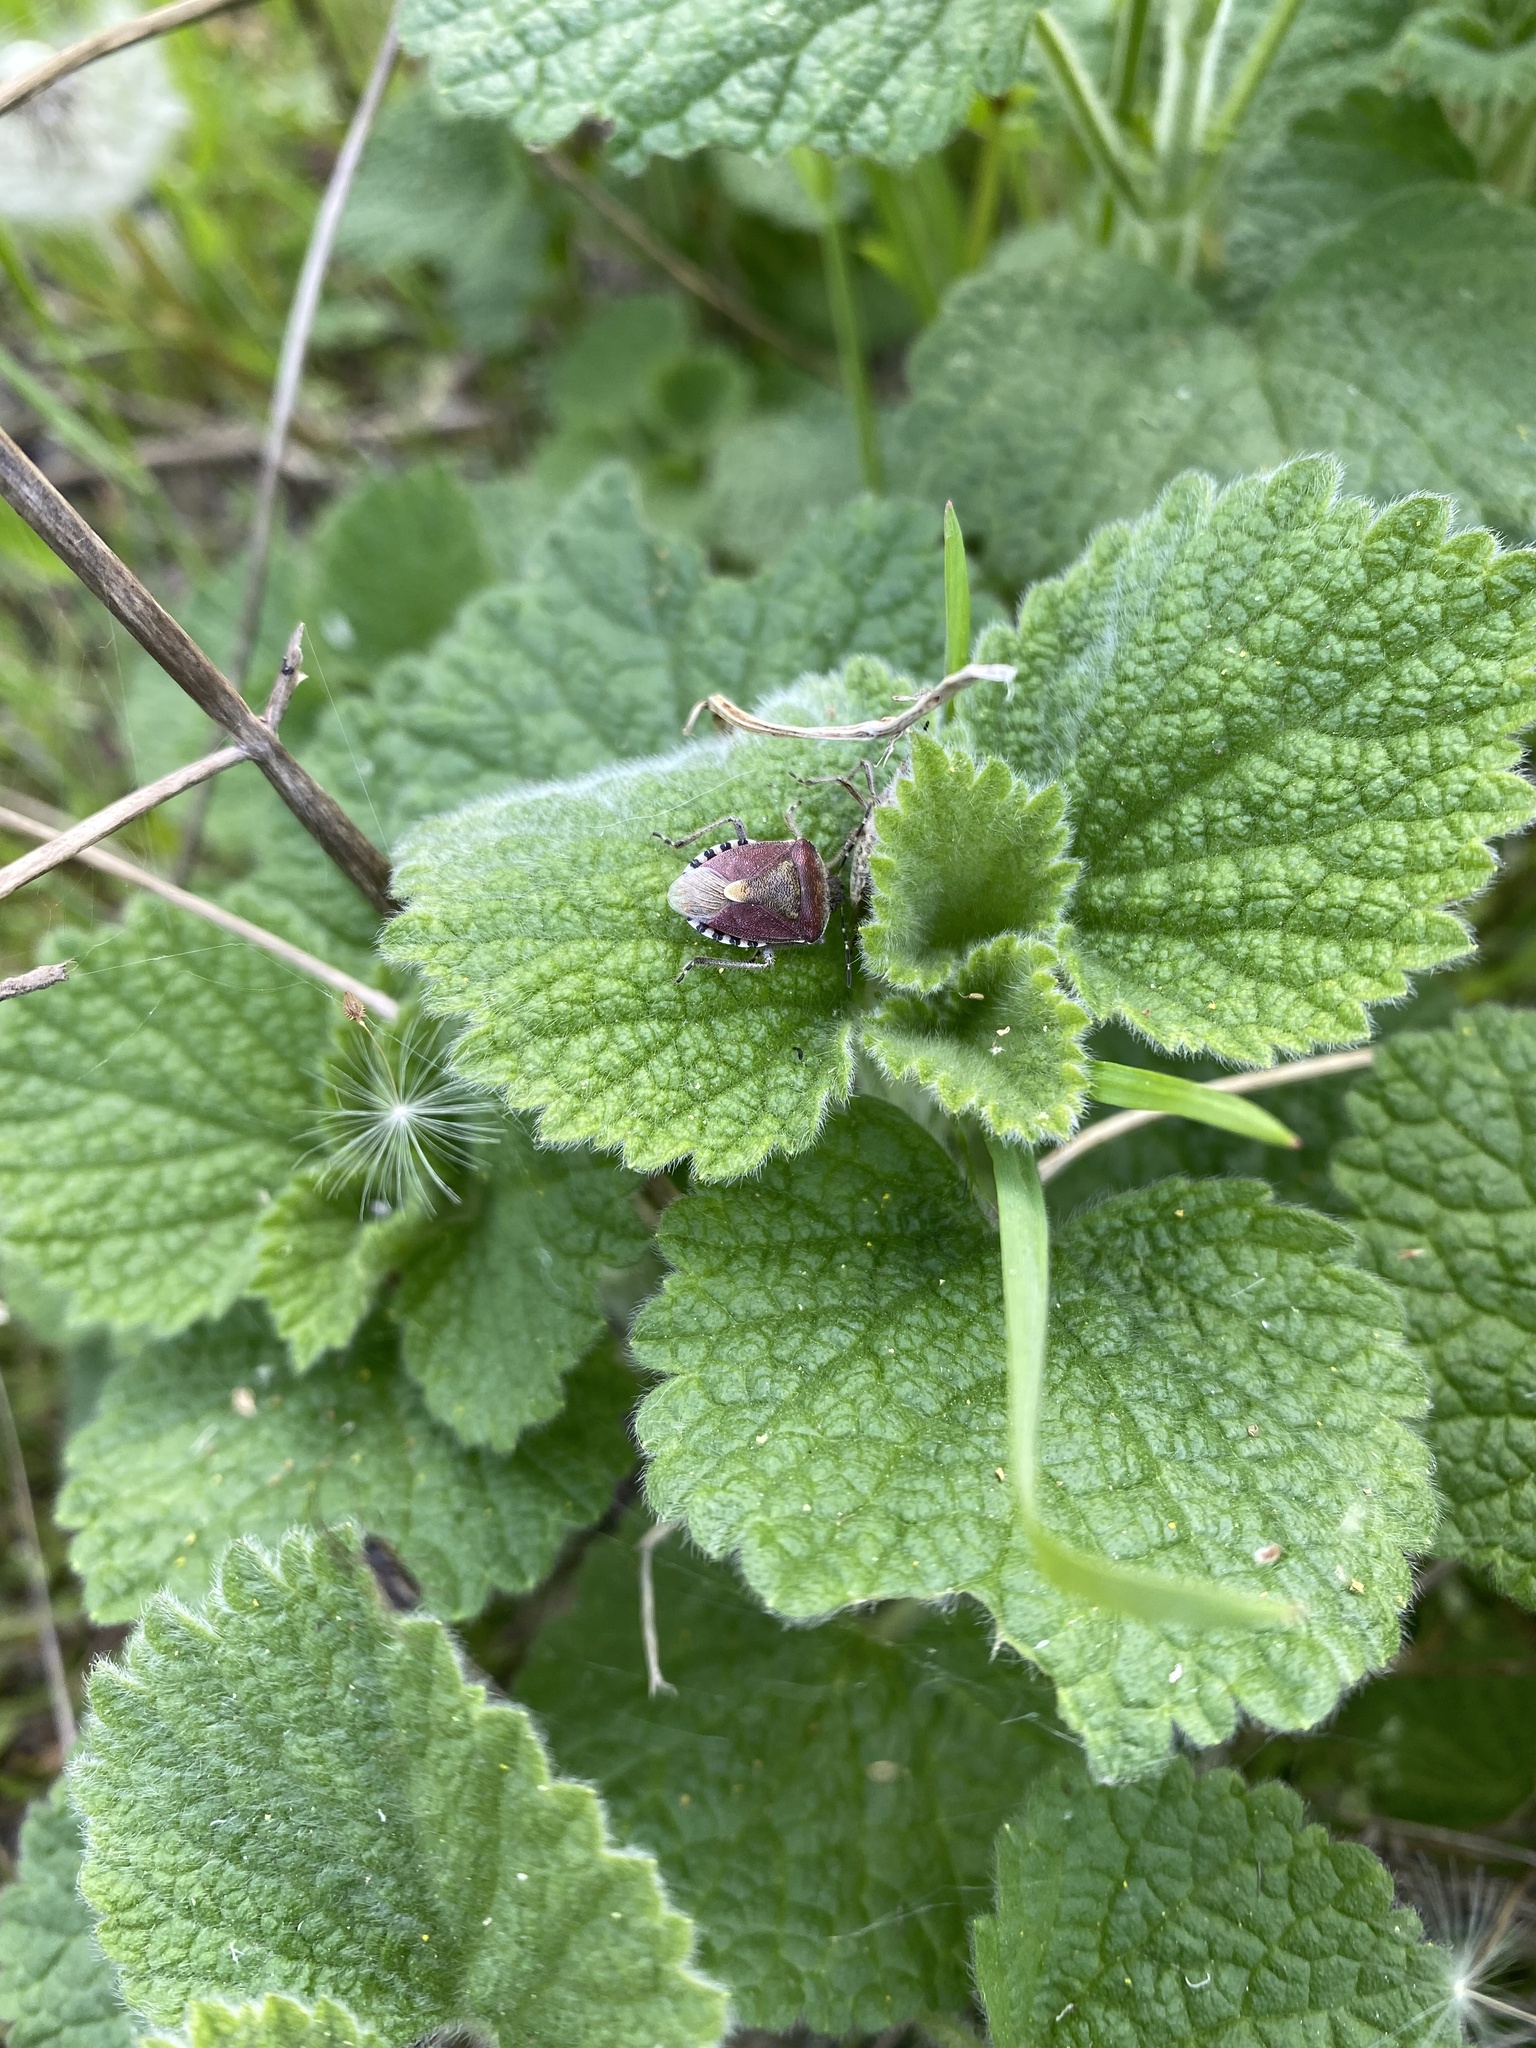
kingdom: Animalia
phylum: Arthropoda
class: Insecta
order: Hemiptera
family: Pentatomidae
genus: Dolycoris
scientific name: Dolycoris baccarum
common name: Sloe bug
